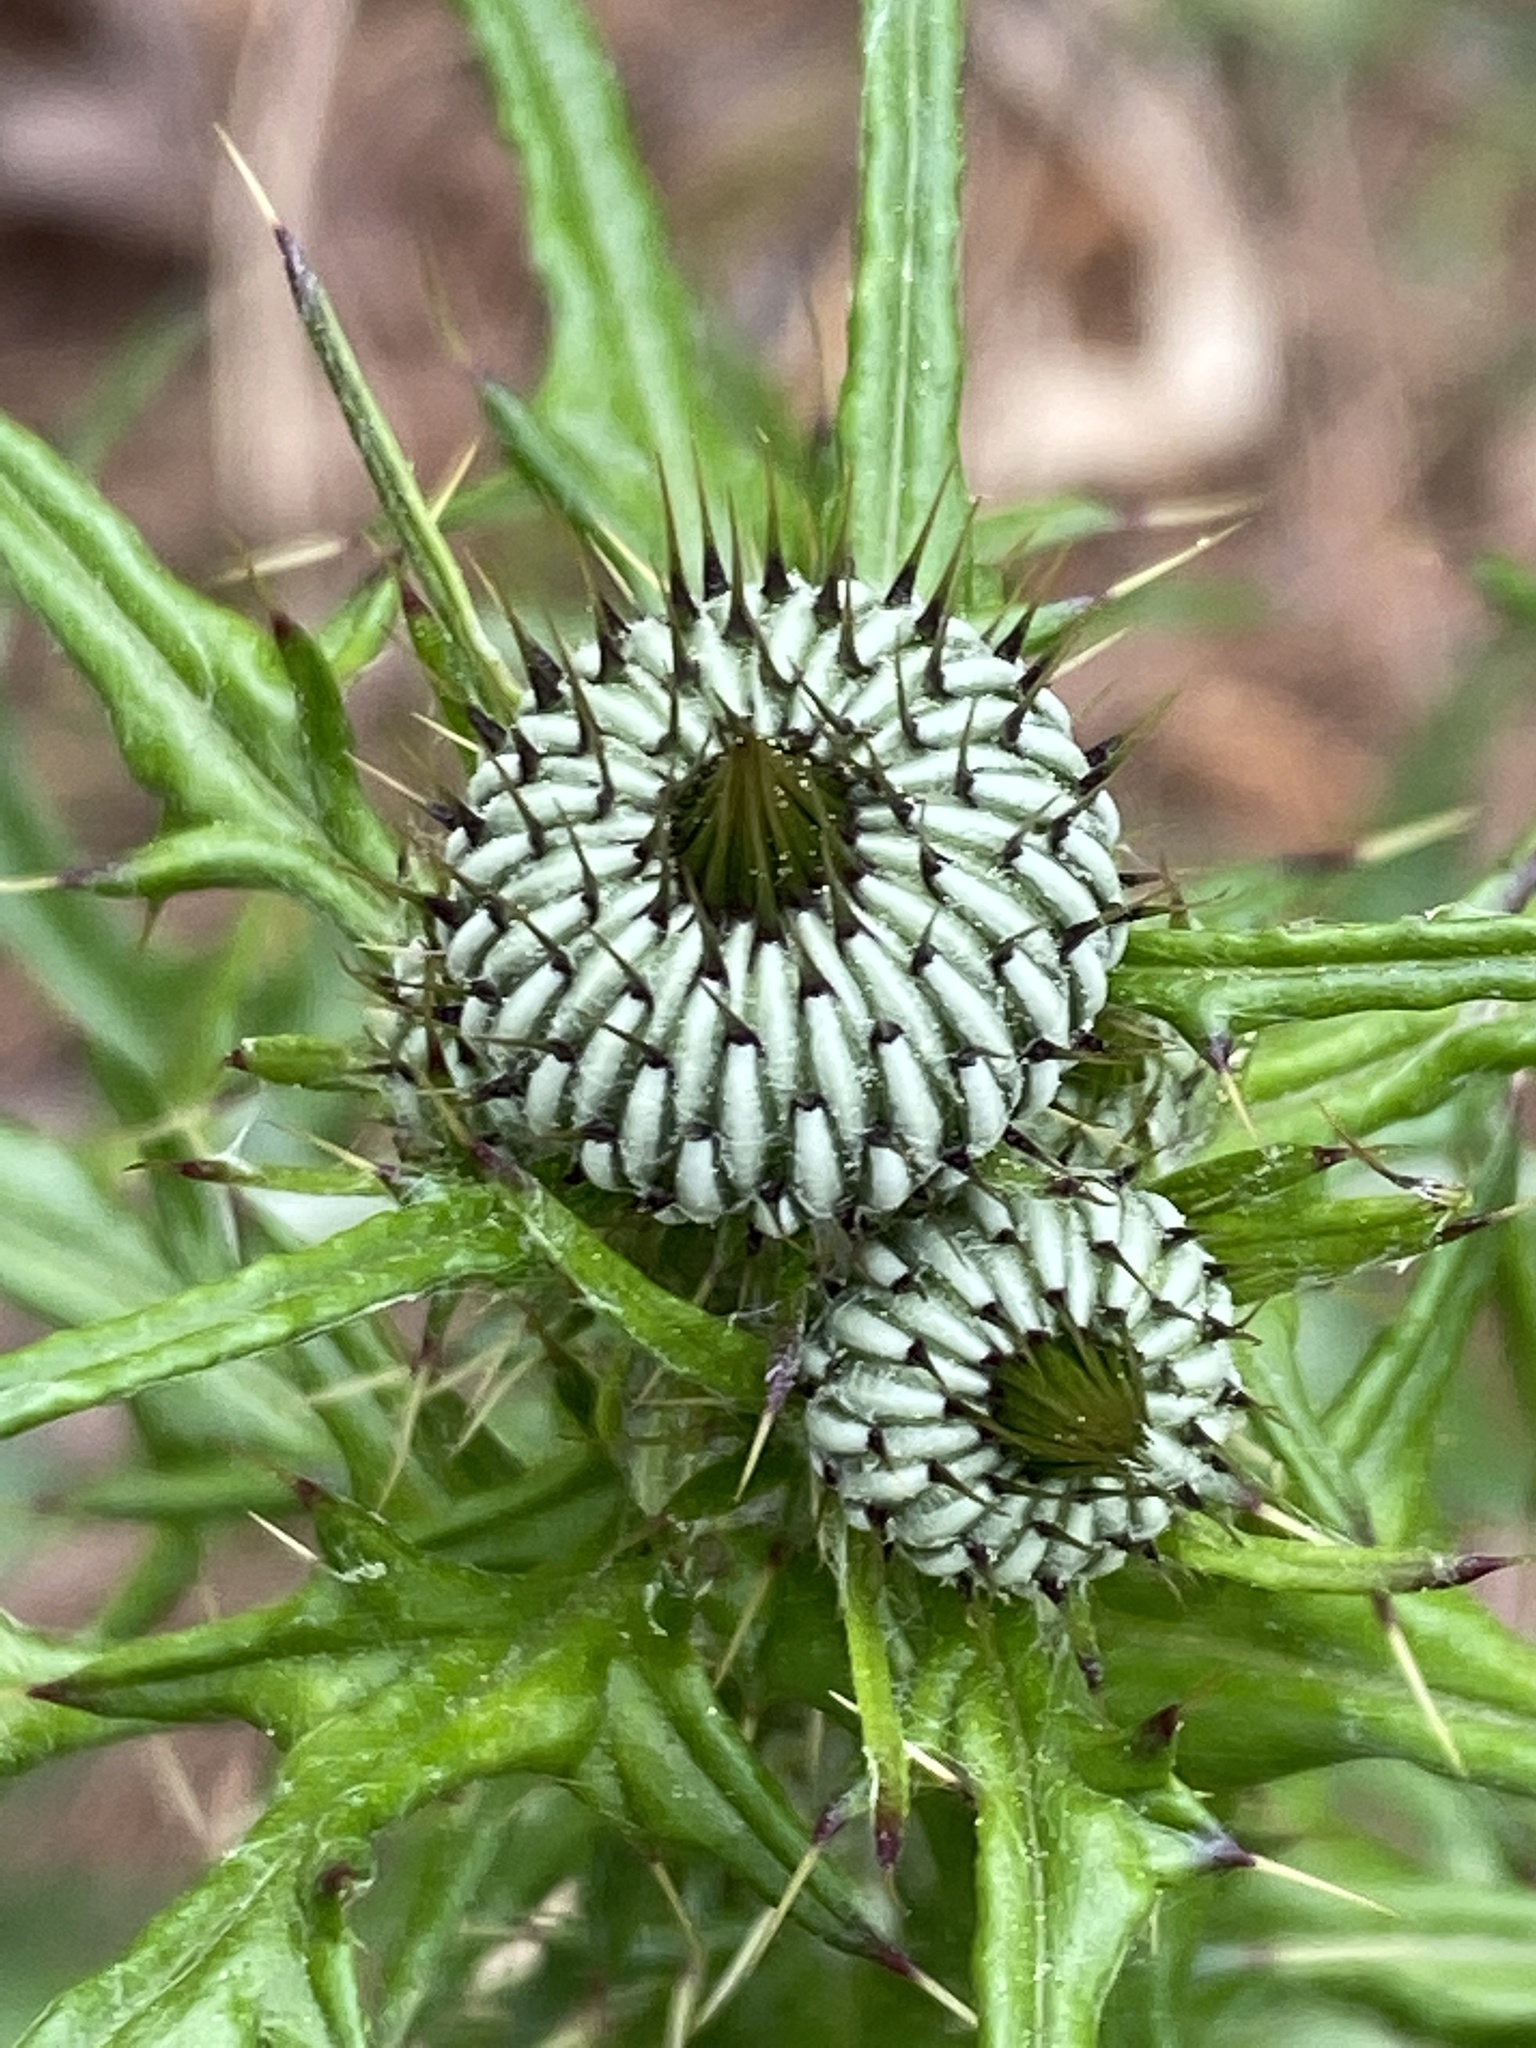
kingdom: Plantae
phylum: Tracheophyta
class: Magnoliopsida
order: Asterales
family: Asteraceae
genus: Cirsium
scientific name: Cirsium carolinianum
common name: Carolina thistle
